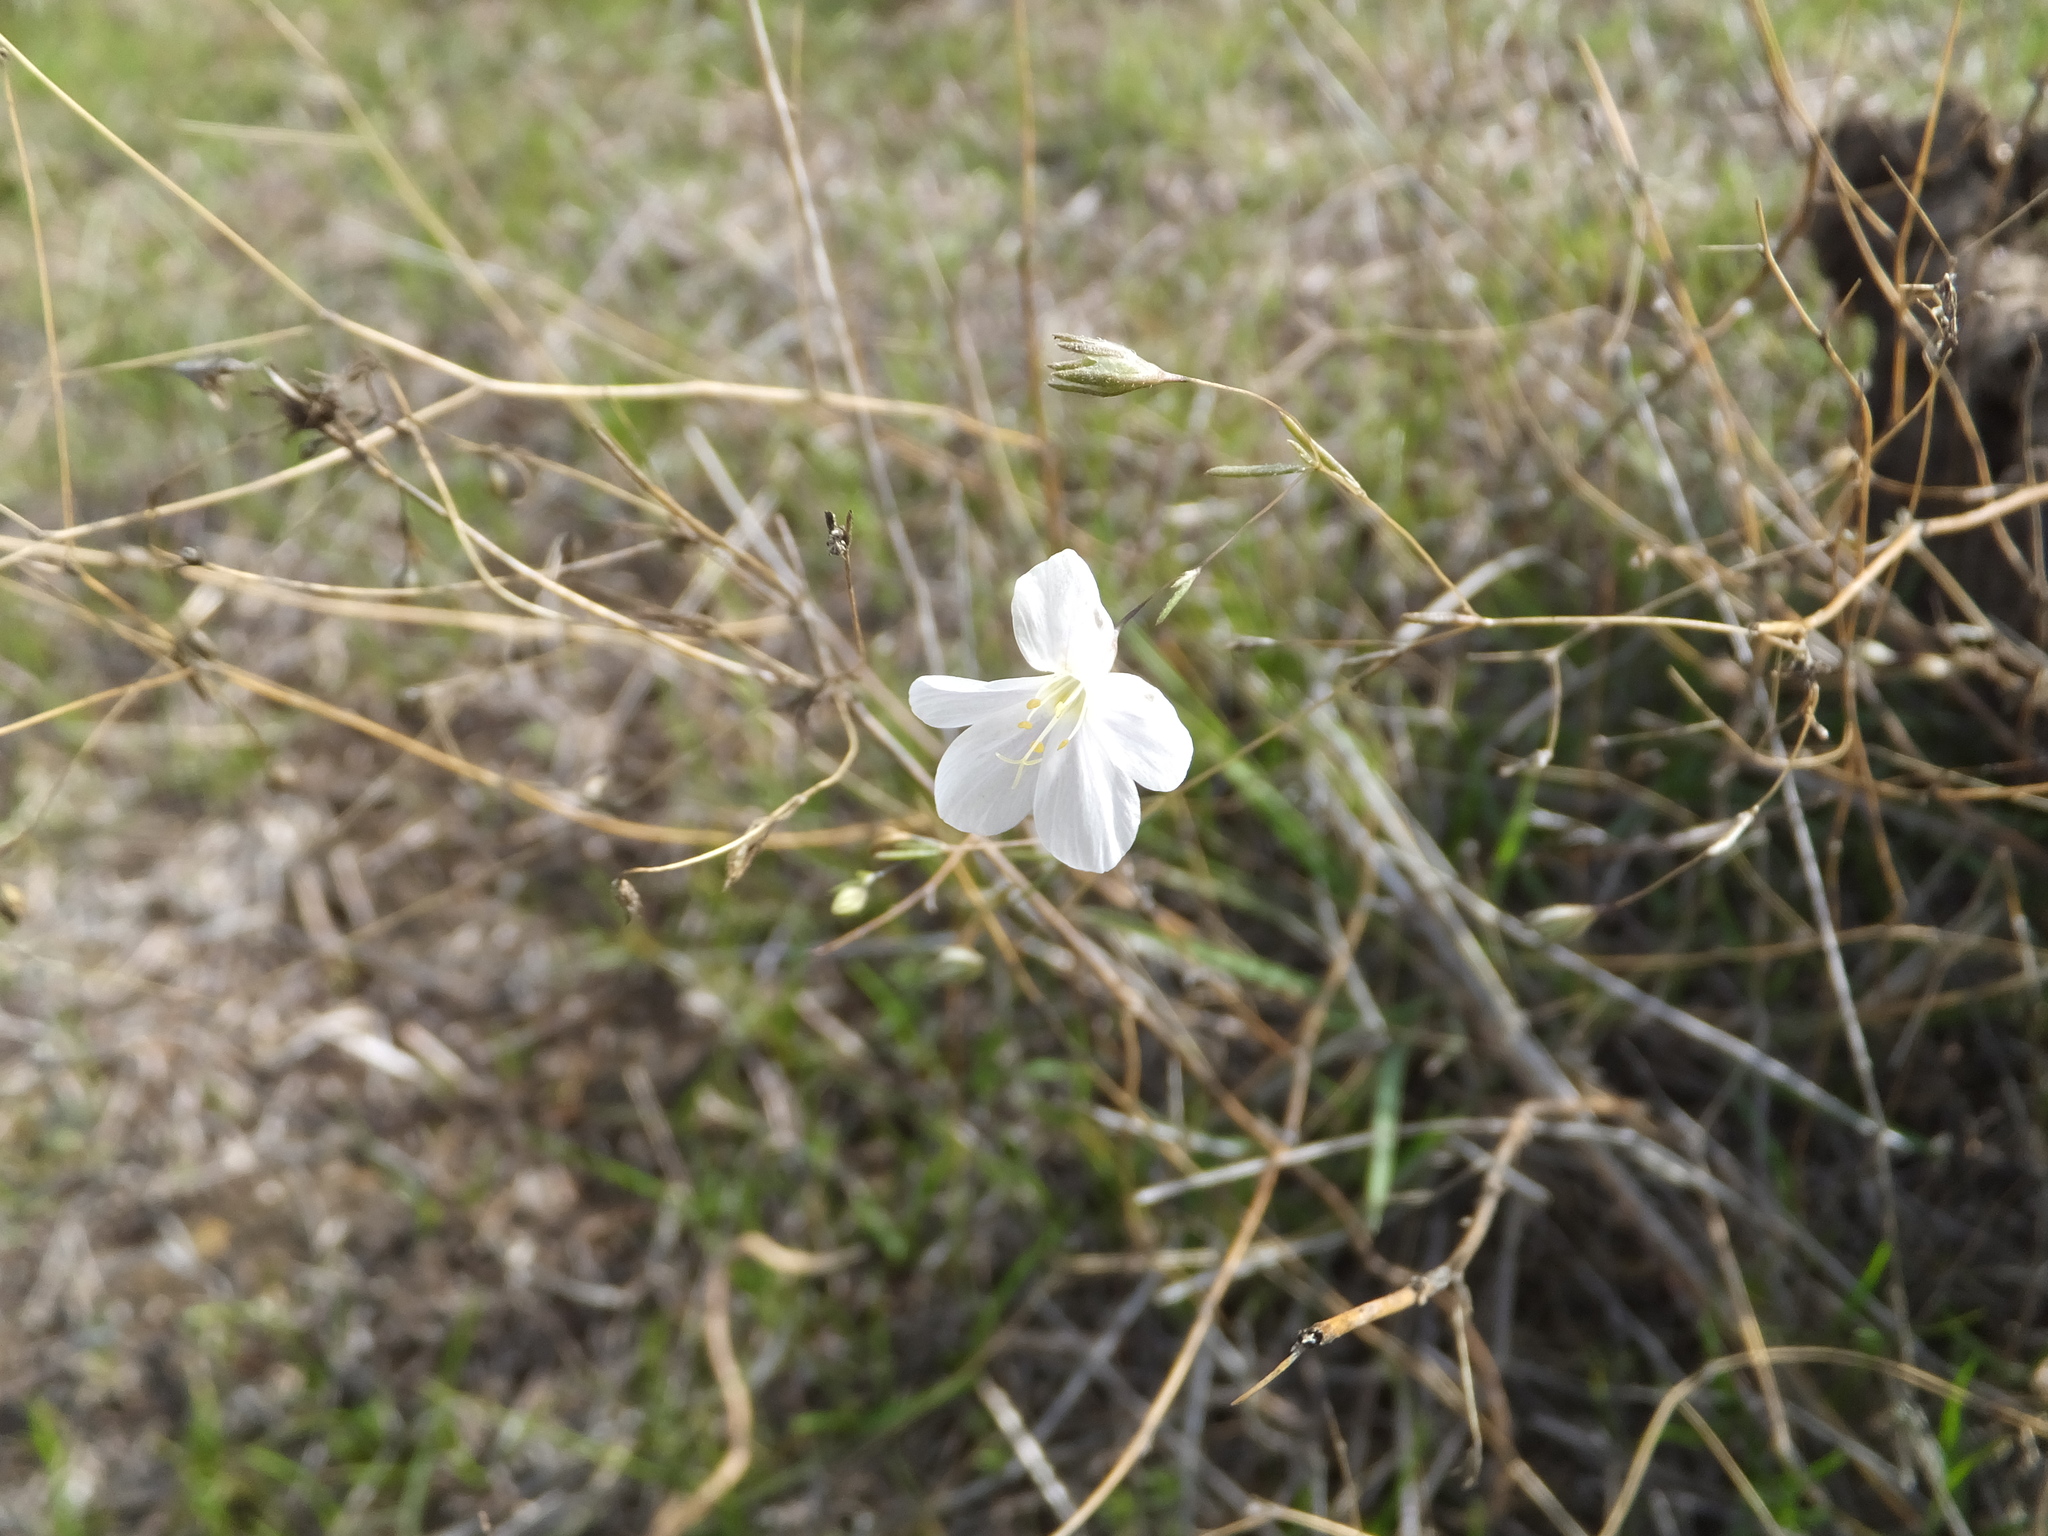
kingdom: Plantae
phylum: Tracheophyta
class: Magnoliopsida
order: Ericales
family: Polemoniaceae
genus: Leptosiphon
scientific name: Leptosiphon liniflorus
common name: Narrowflower flaxflower
